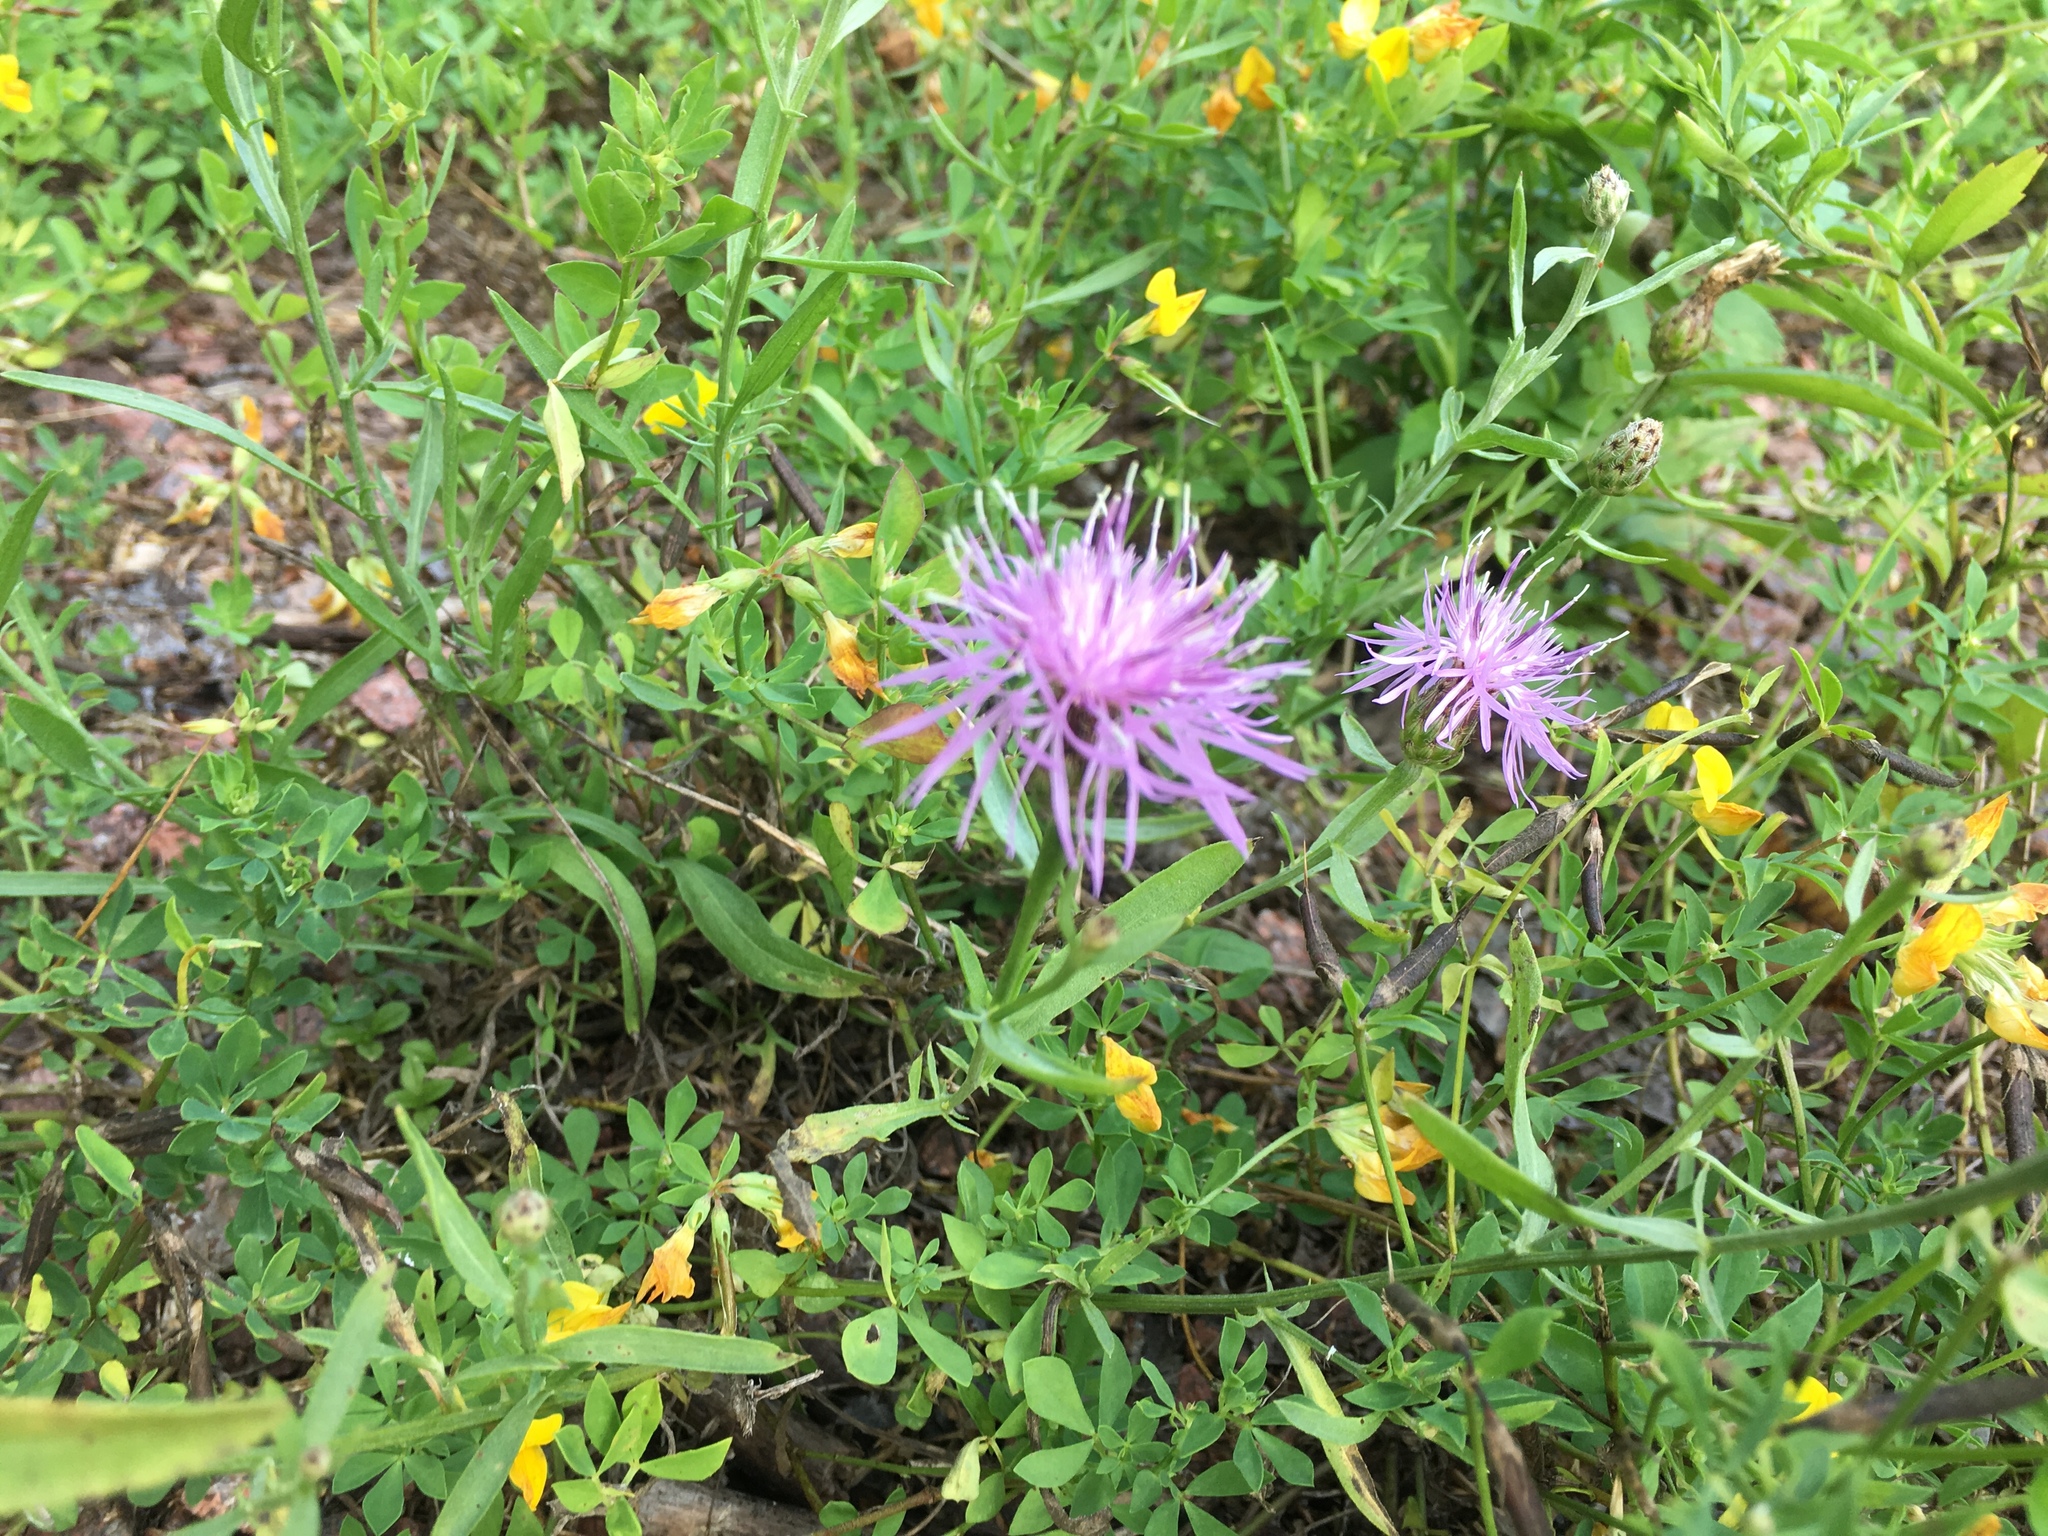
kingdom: Plantae
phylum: Tracheophyta
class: Magnoliopsida
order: Asterales
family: Asteraceae
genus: Centaurea
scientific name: Centaurea stoebe
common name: Spotted knapweed
